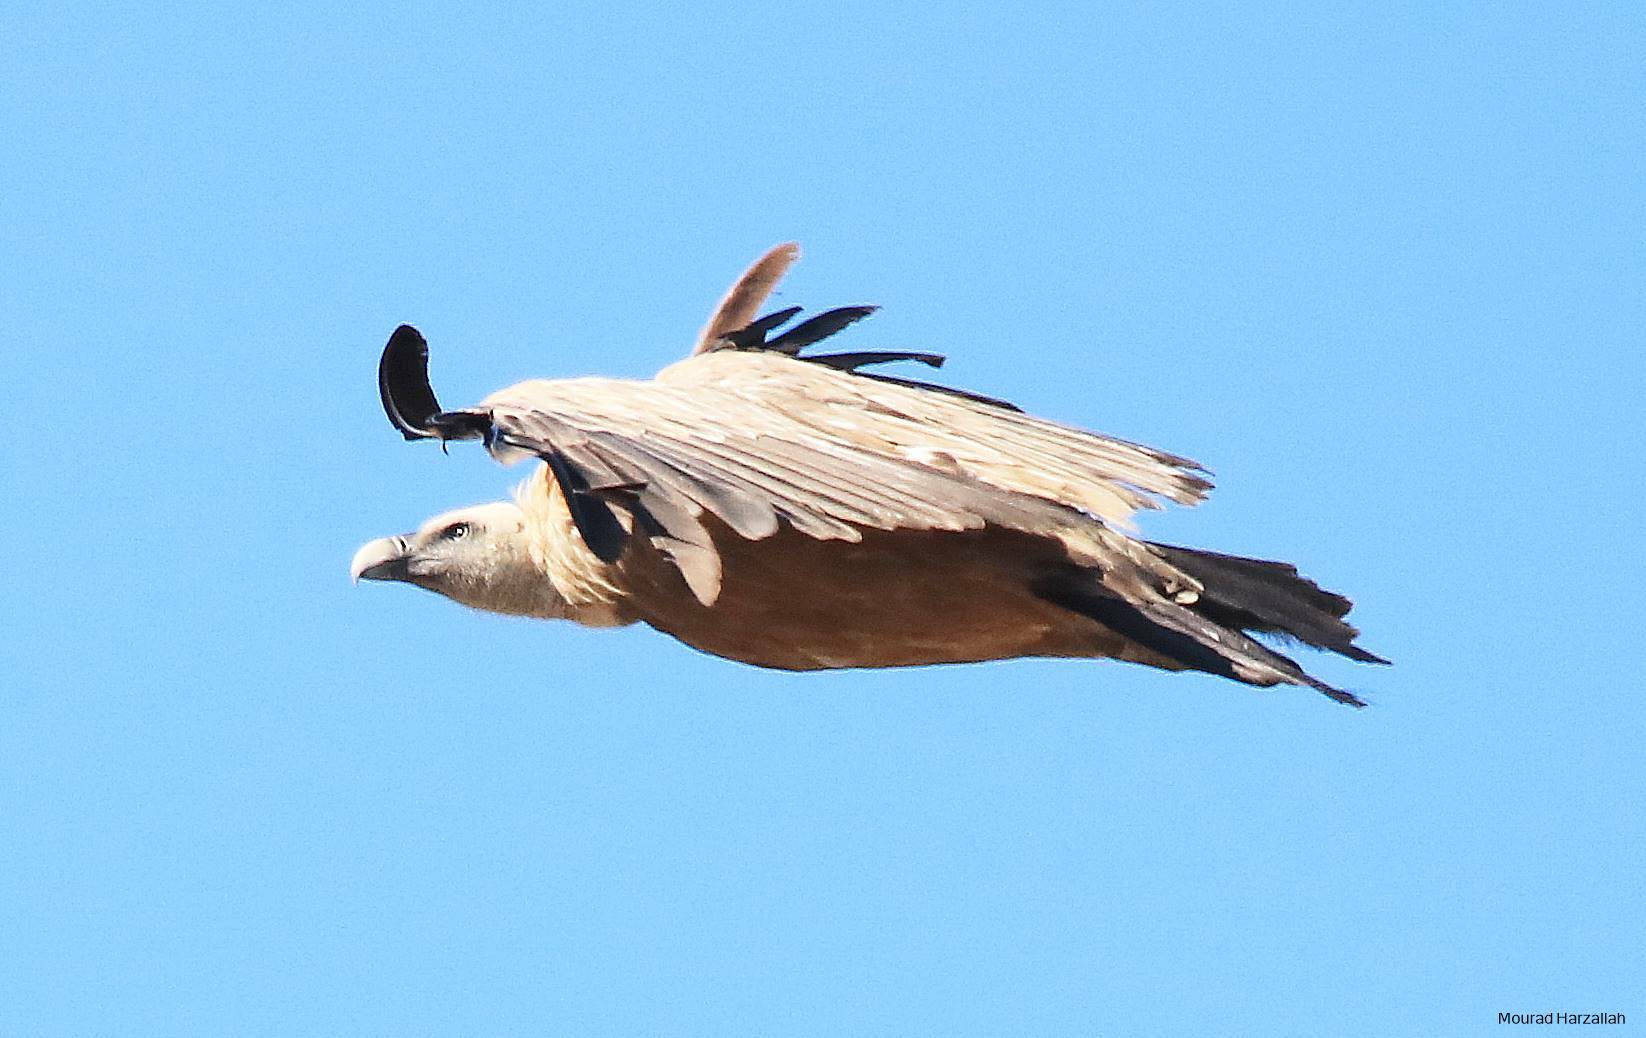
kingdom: Animalia
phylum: Chordata
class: Aves
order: Accipitriformes
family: Accipitridae
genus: Gyps
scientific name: Gyps fulvus
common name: Griffon vulture
